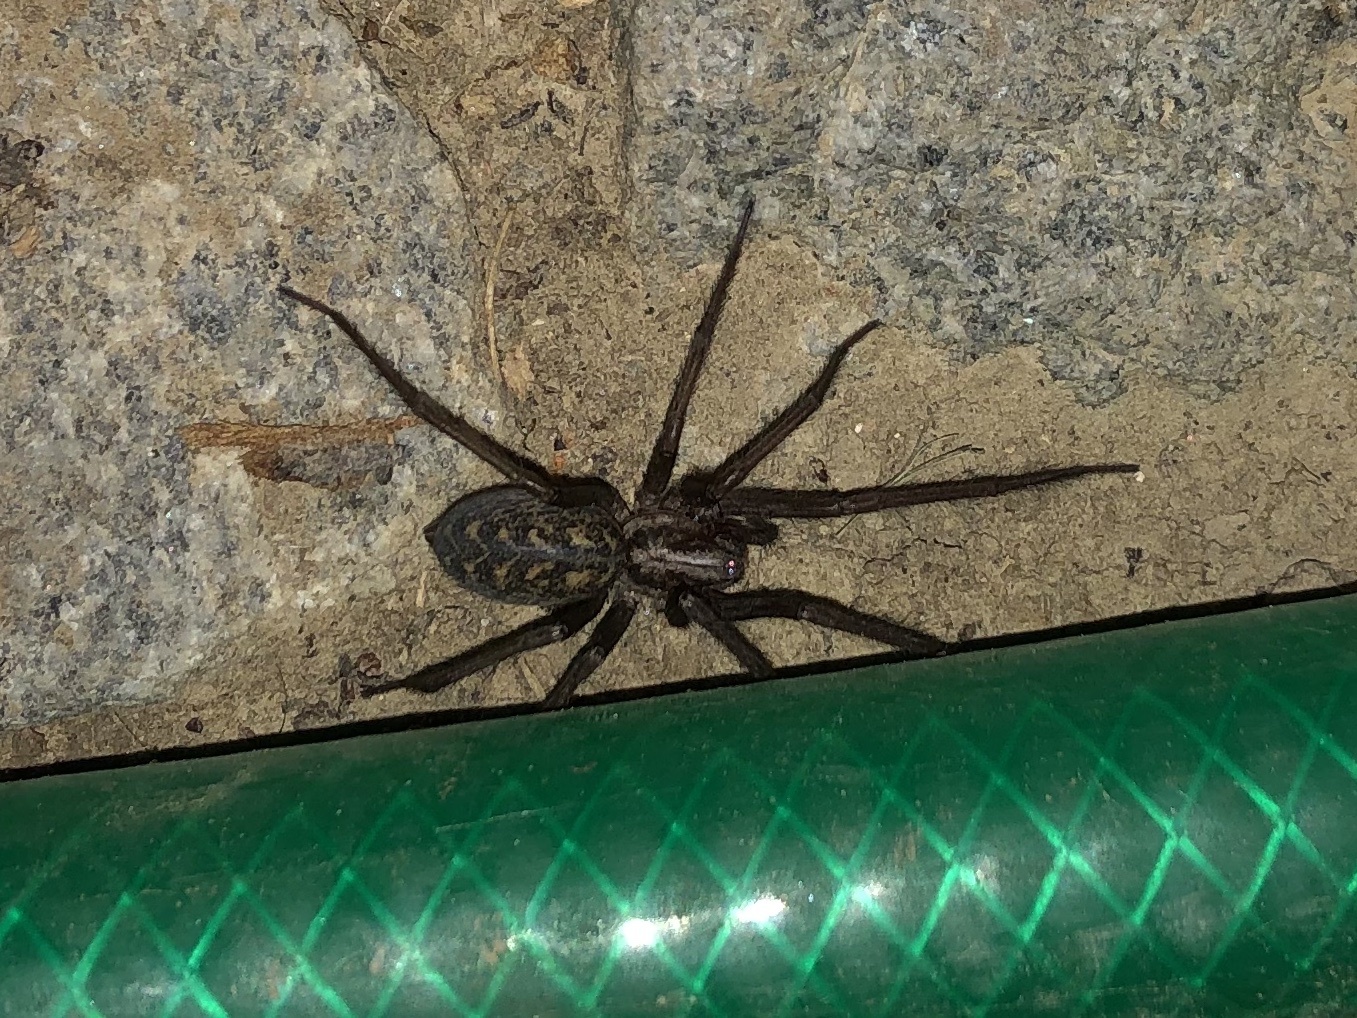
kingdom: Animalia
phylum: Arthropoda
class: Arachnida
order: Araneae
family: Agelenidae
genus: Eratigena
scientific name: Eratigena atrica
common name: Giant house spider
